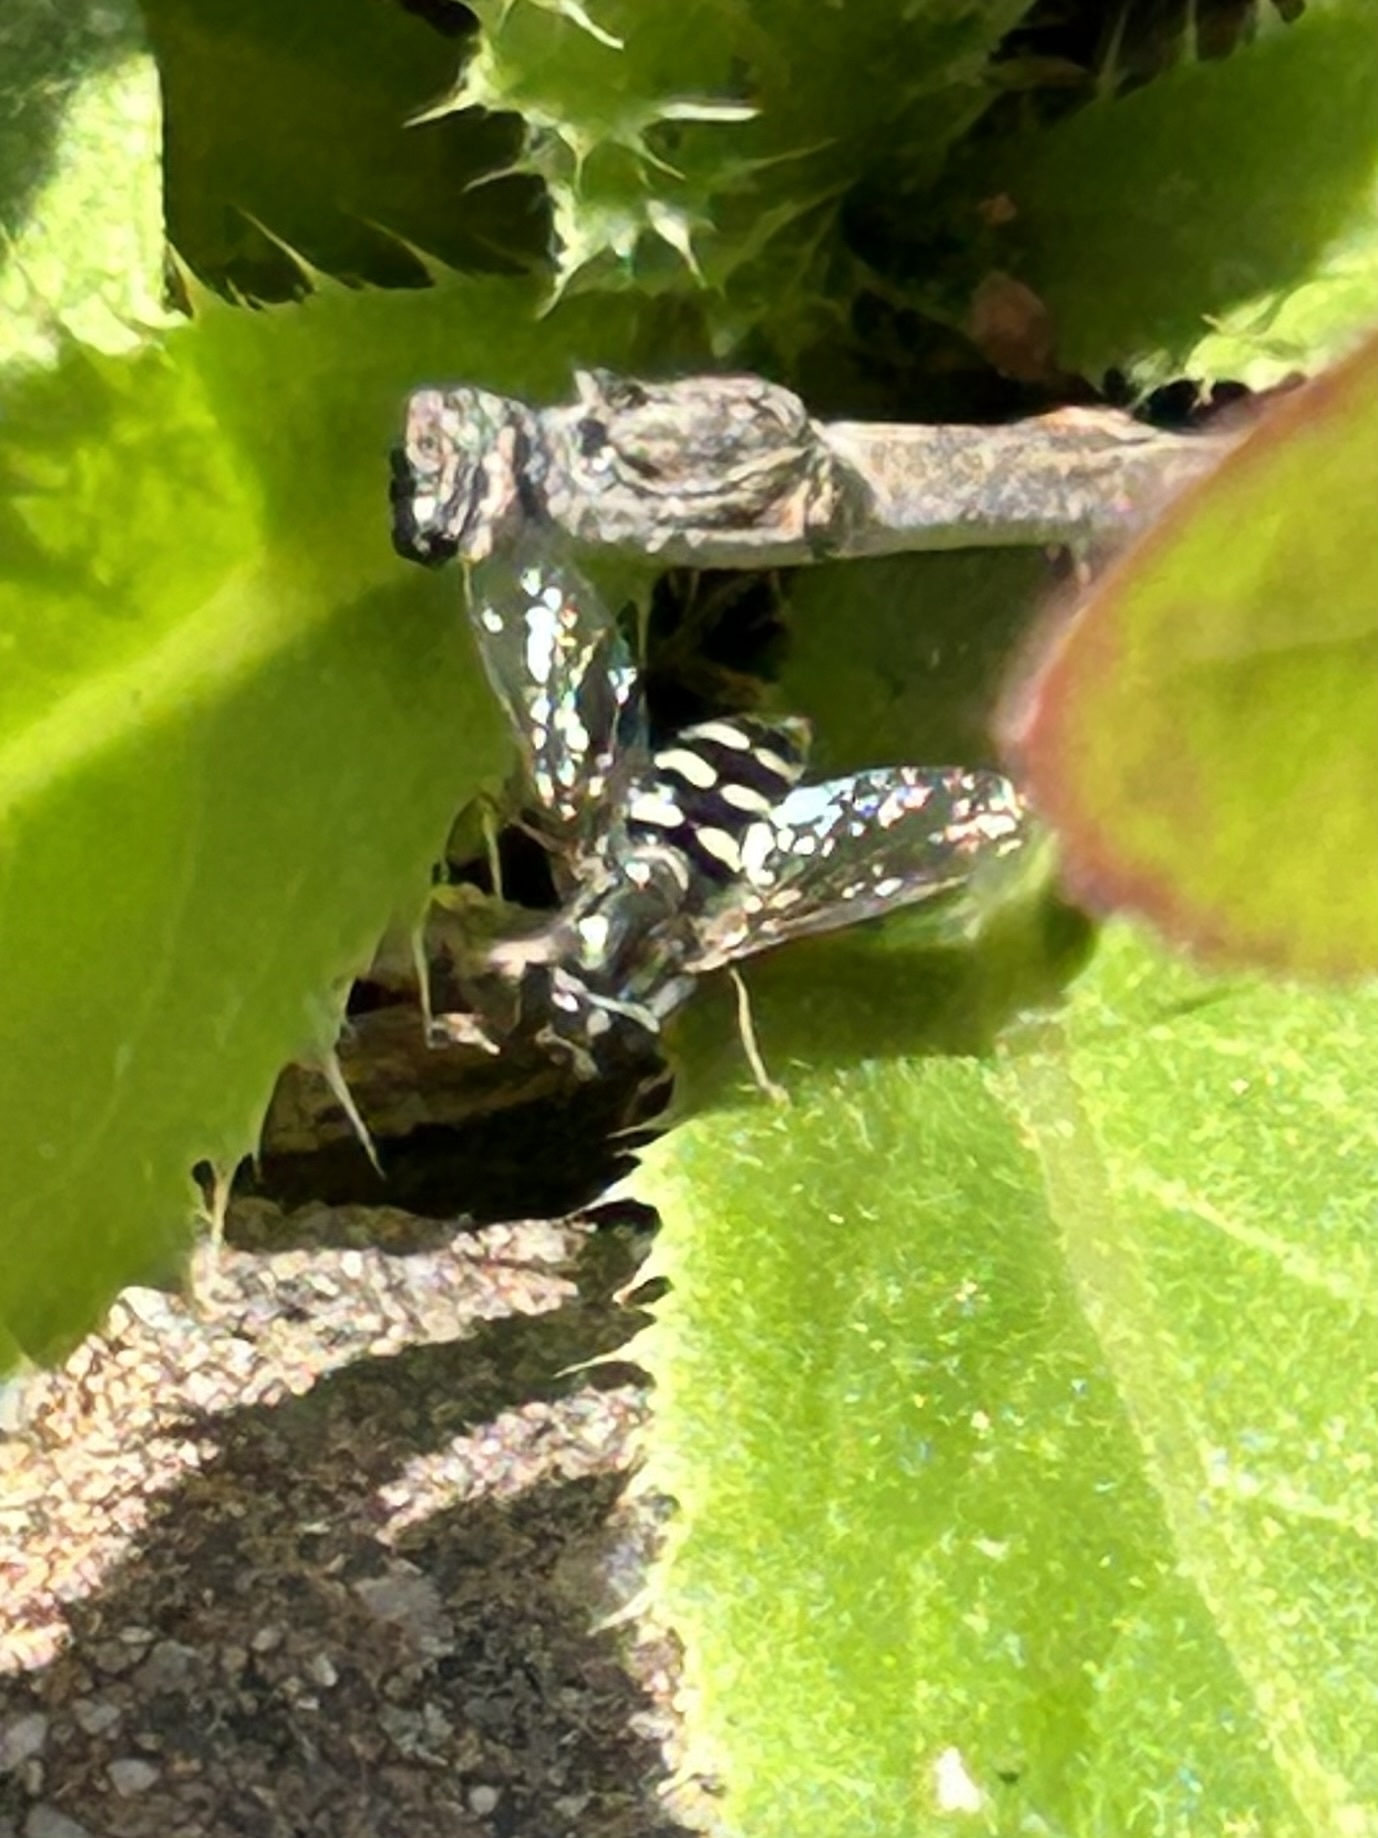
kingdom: Animalia
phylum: Arthropoda
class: Insecta
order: Diptera
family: Syrphidae
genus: Eupeodes
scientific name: Eupeodes volucris
